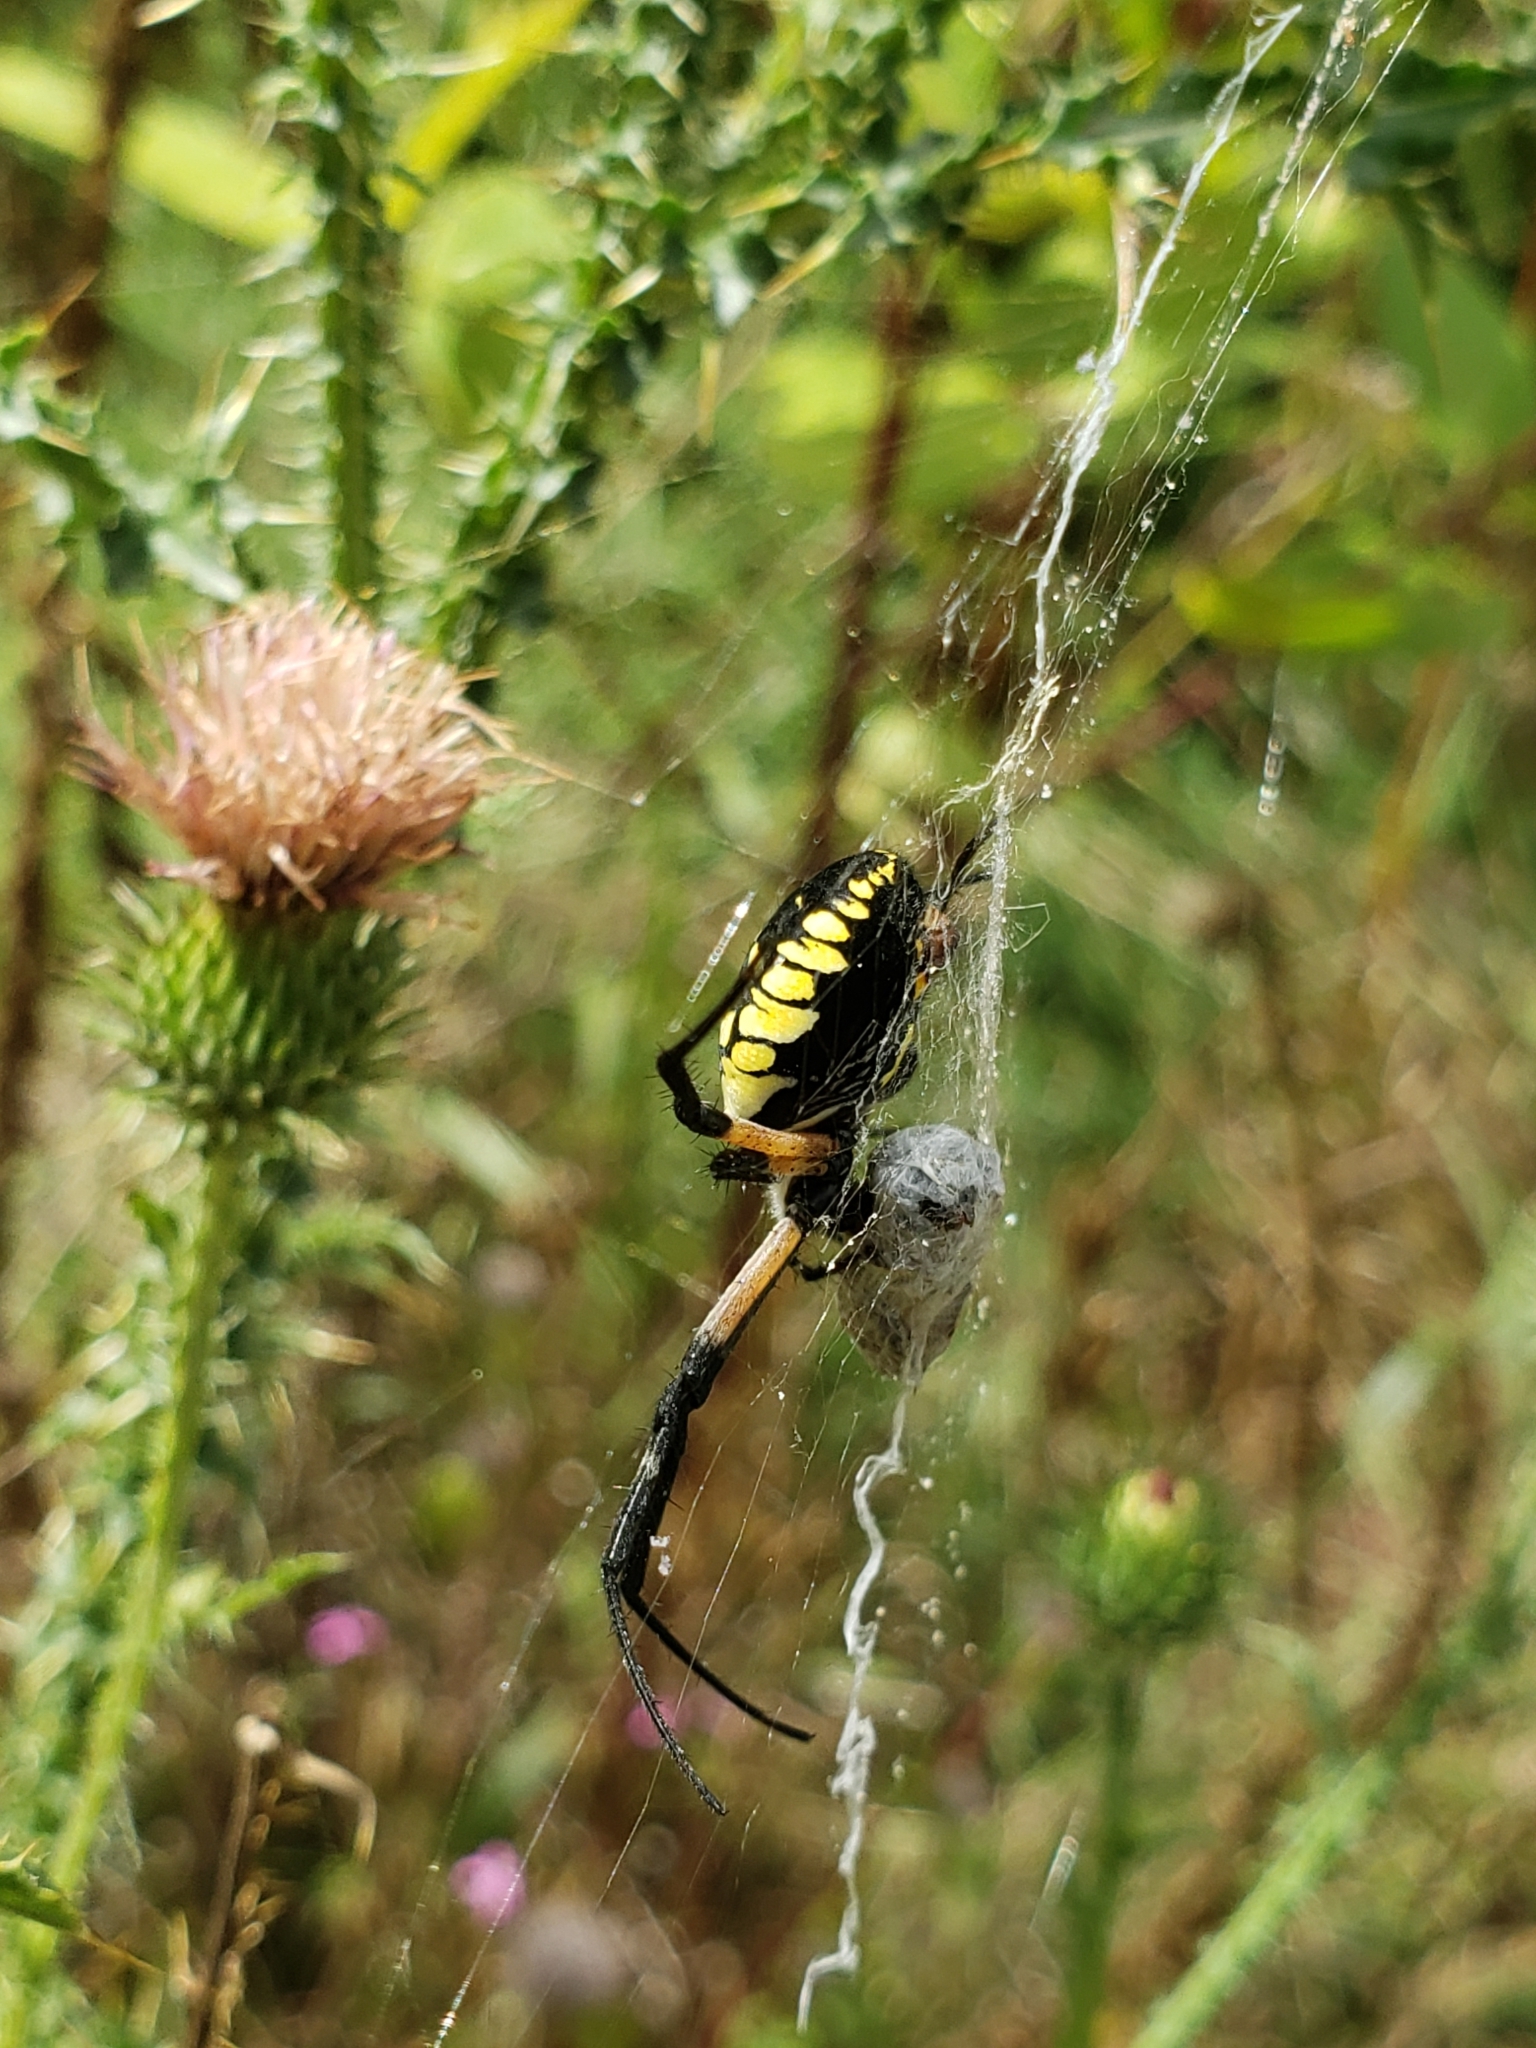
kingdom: Animalia
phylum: Arthropoda
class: Arachnida
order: Araneae
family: Araneidae
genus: Argiope
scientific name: Argiope aurantia
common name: Orb weavers
